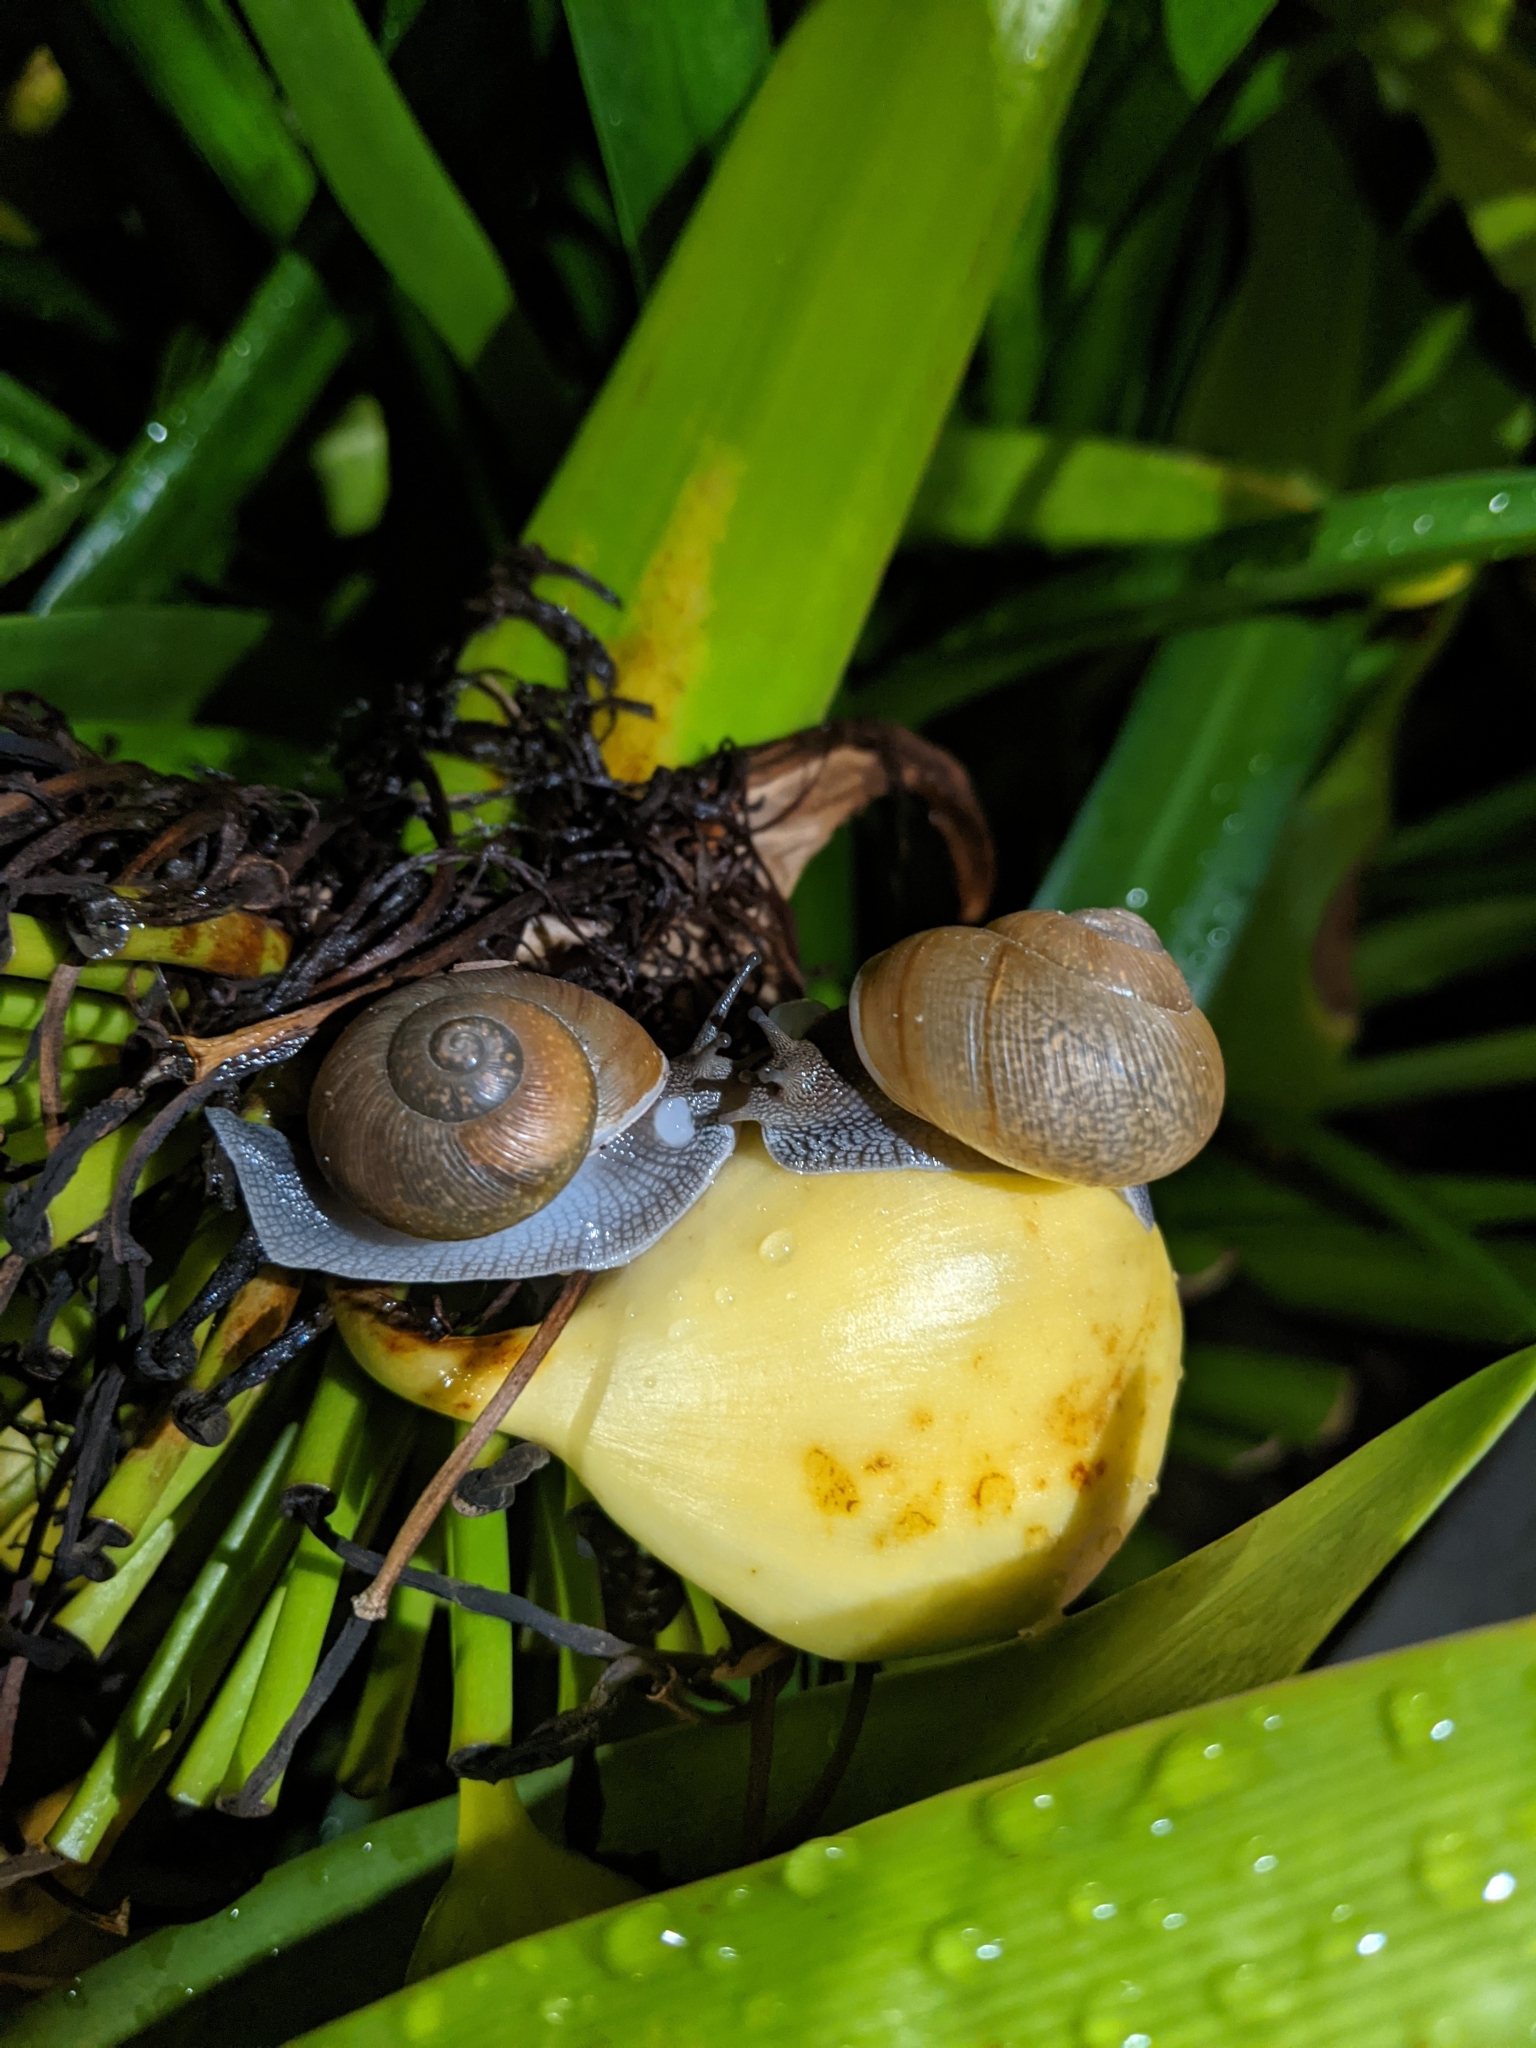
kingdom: Animalia
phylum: Mollusca
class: Gastropoda
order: Stylommatophora
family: Zachrysiidae
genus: Zachrysia
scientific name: Zachrysia provisoria
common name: Garden zachrysia
